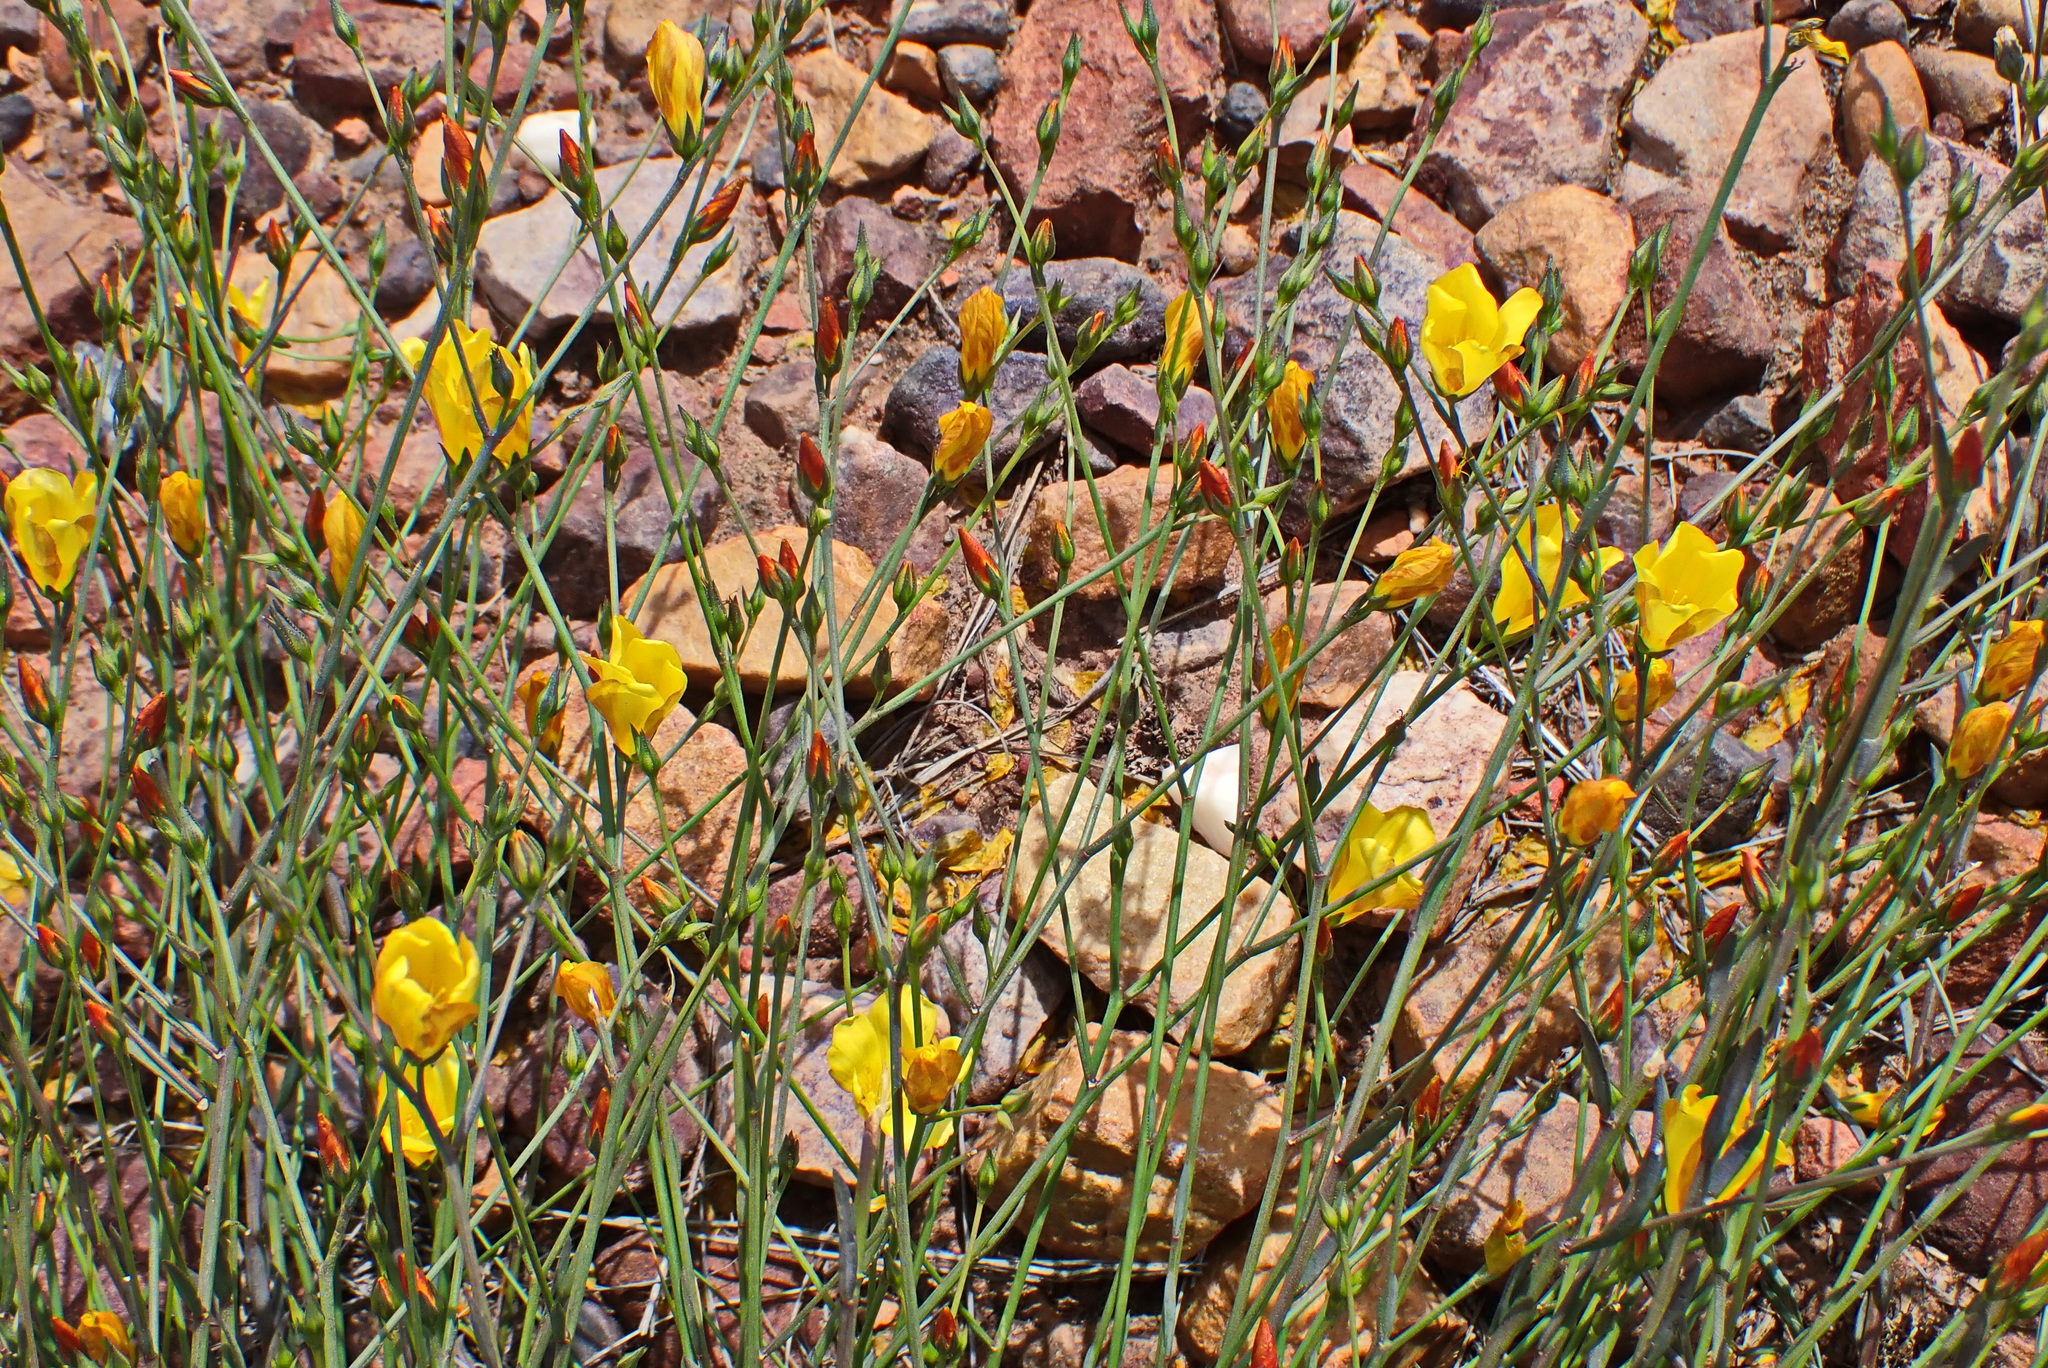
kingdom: Plantae
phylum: Tracheophyta
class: Magnoliopsida
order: Malpighiales
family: Linaceae
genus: Linum
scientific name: Linum africanum
